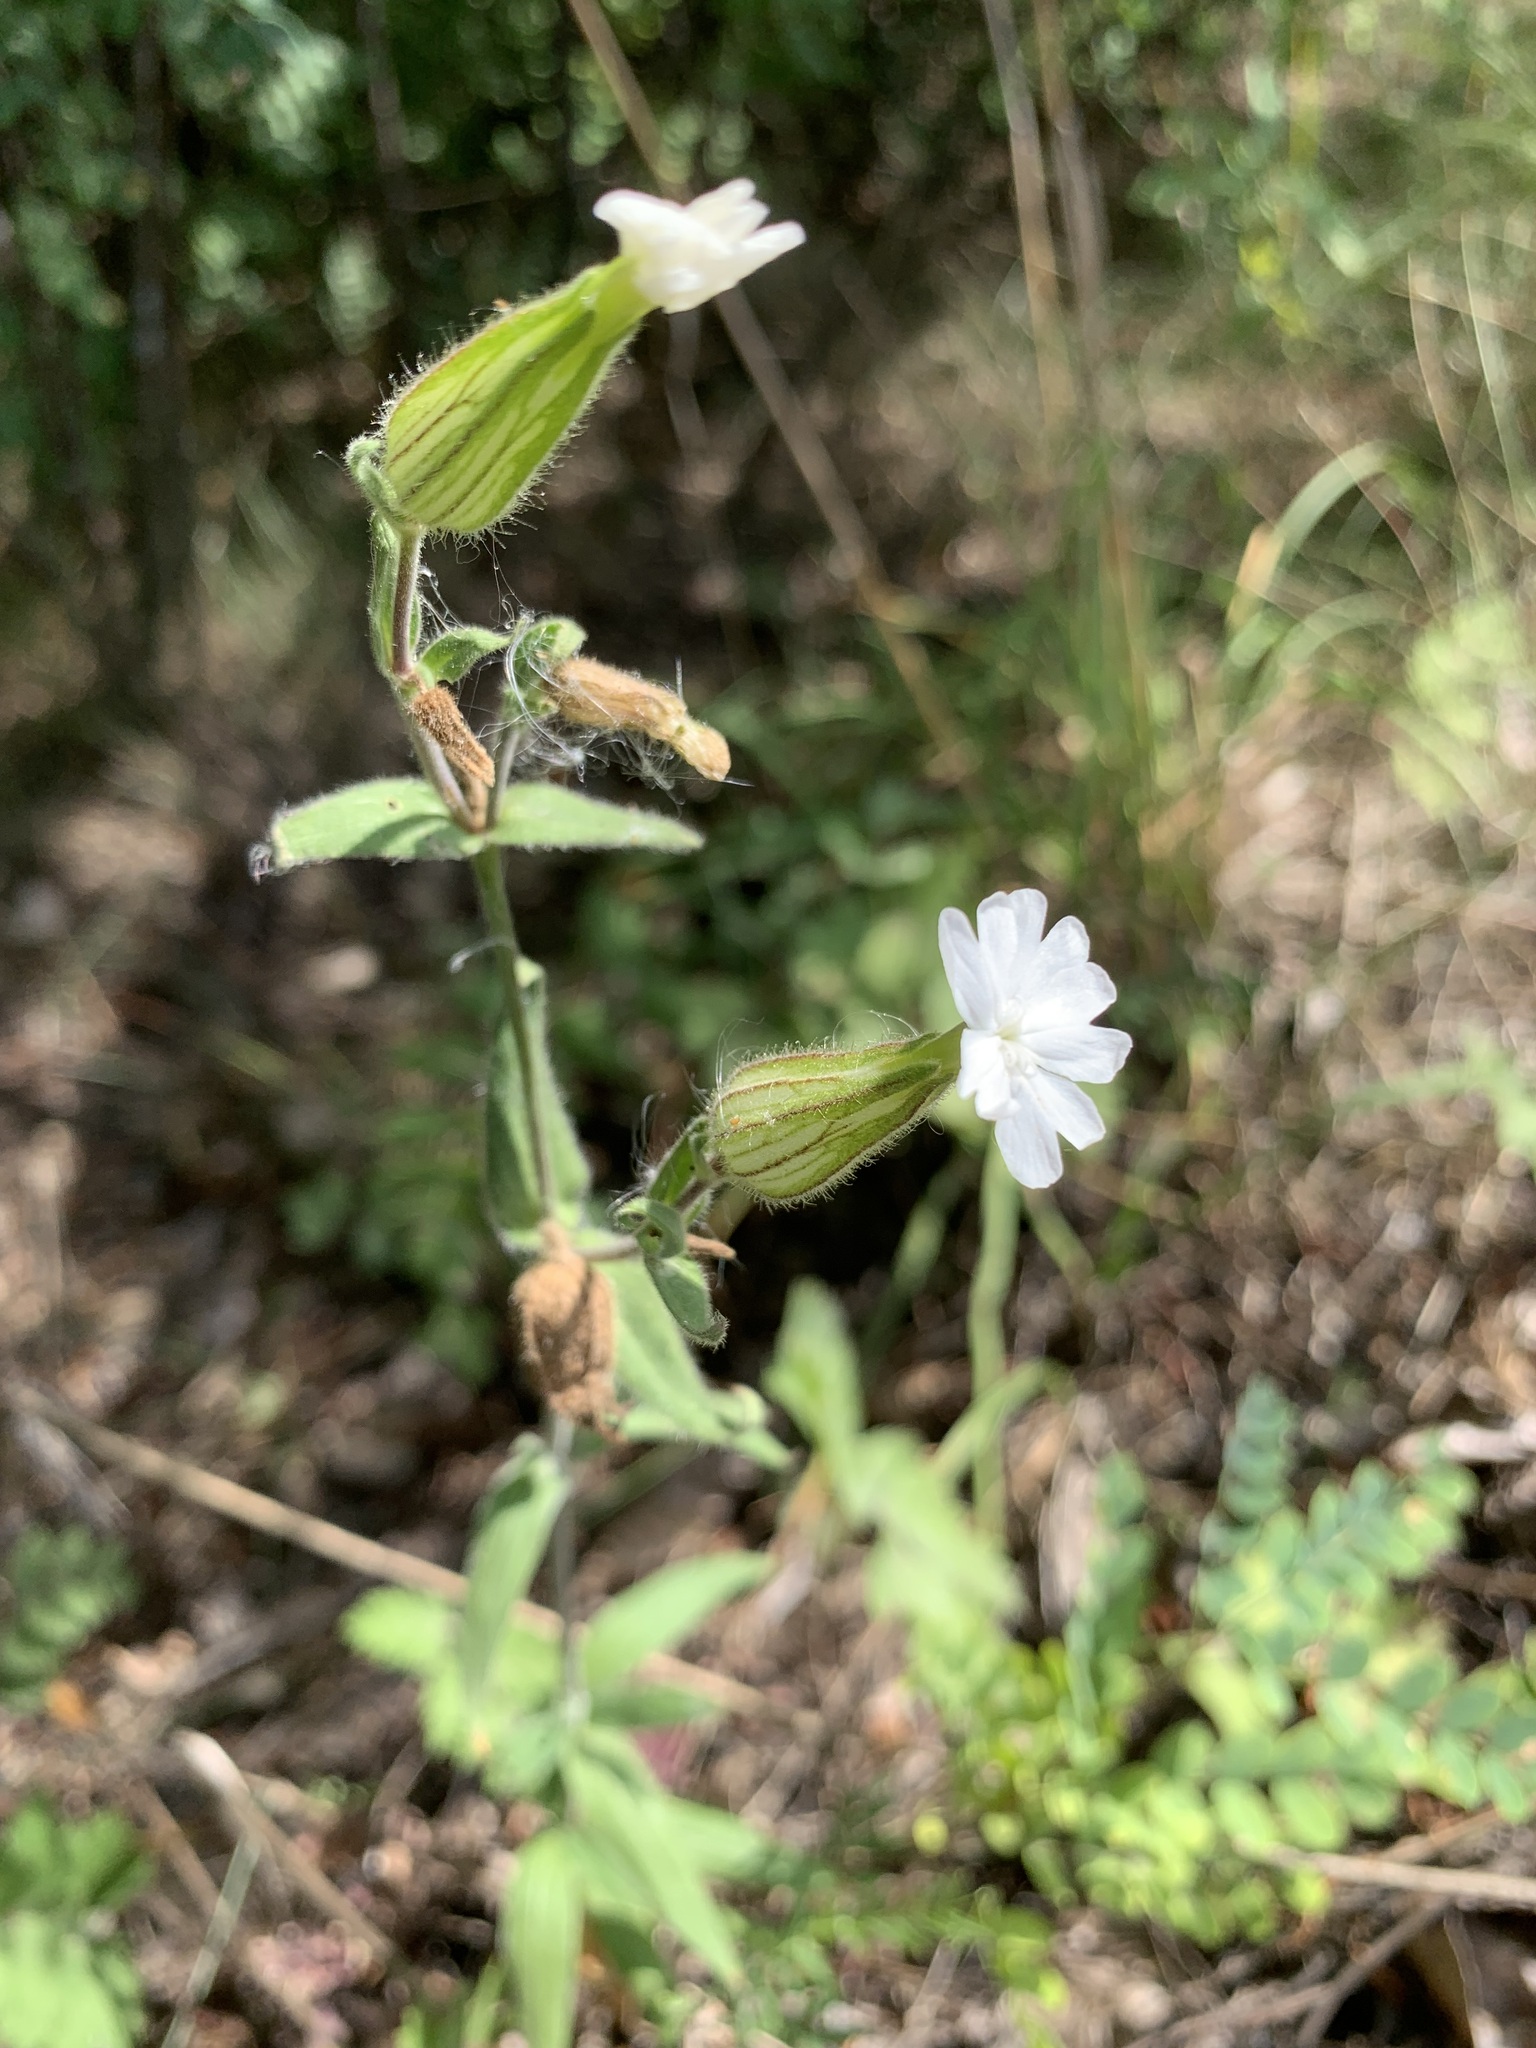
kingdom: Plantae
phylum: Tracheophyta
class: Magnoliopsida
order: Caryophyllales
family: Caryophyllaceae
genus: Silene
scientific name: Silene latifolia
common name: White campion
